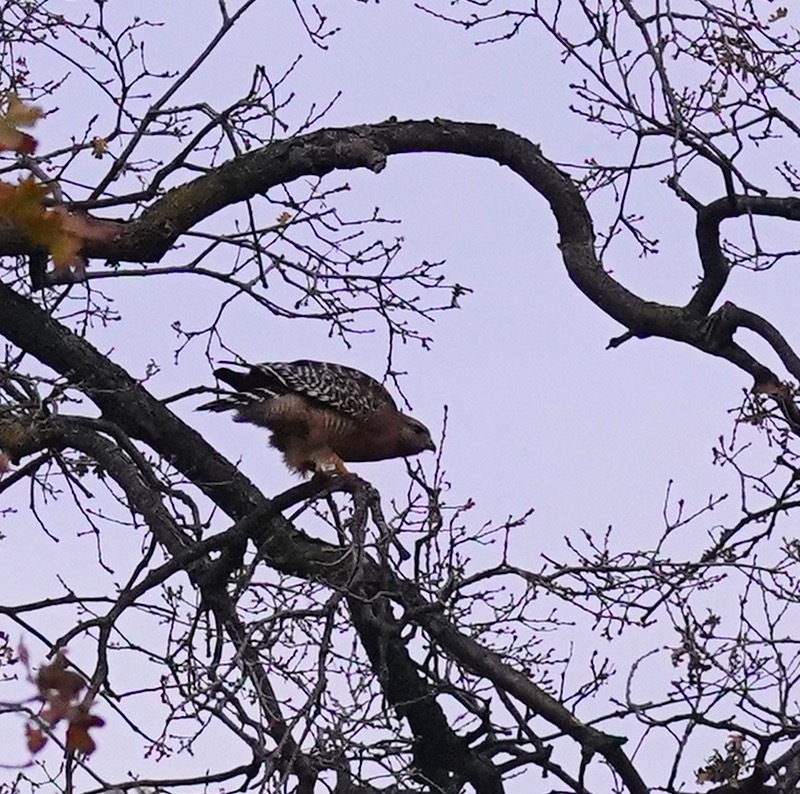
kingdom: Animalia
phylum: Chordata
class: Aves
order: Accipitriformes
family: Accipitridae
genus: Buteo
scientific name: Buteo lineatus
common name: Red-shouldered hawk
